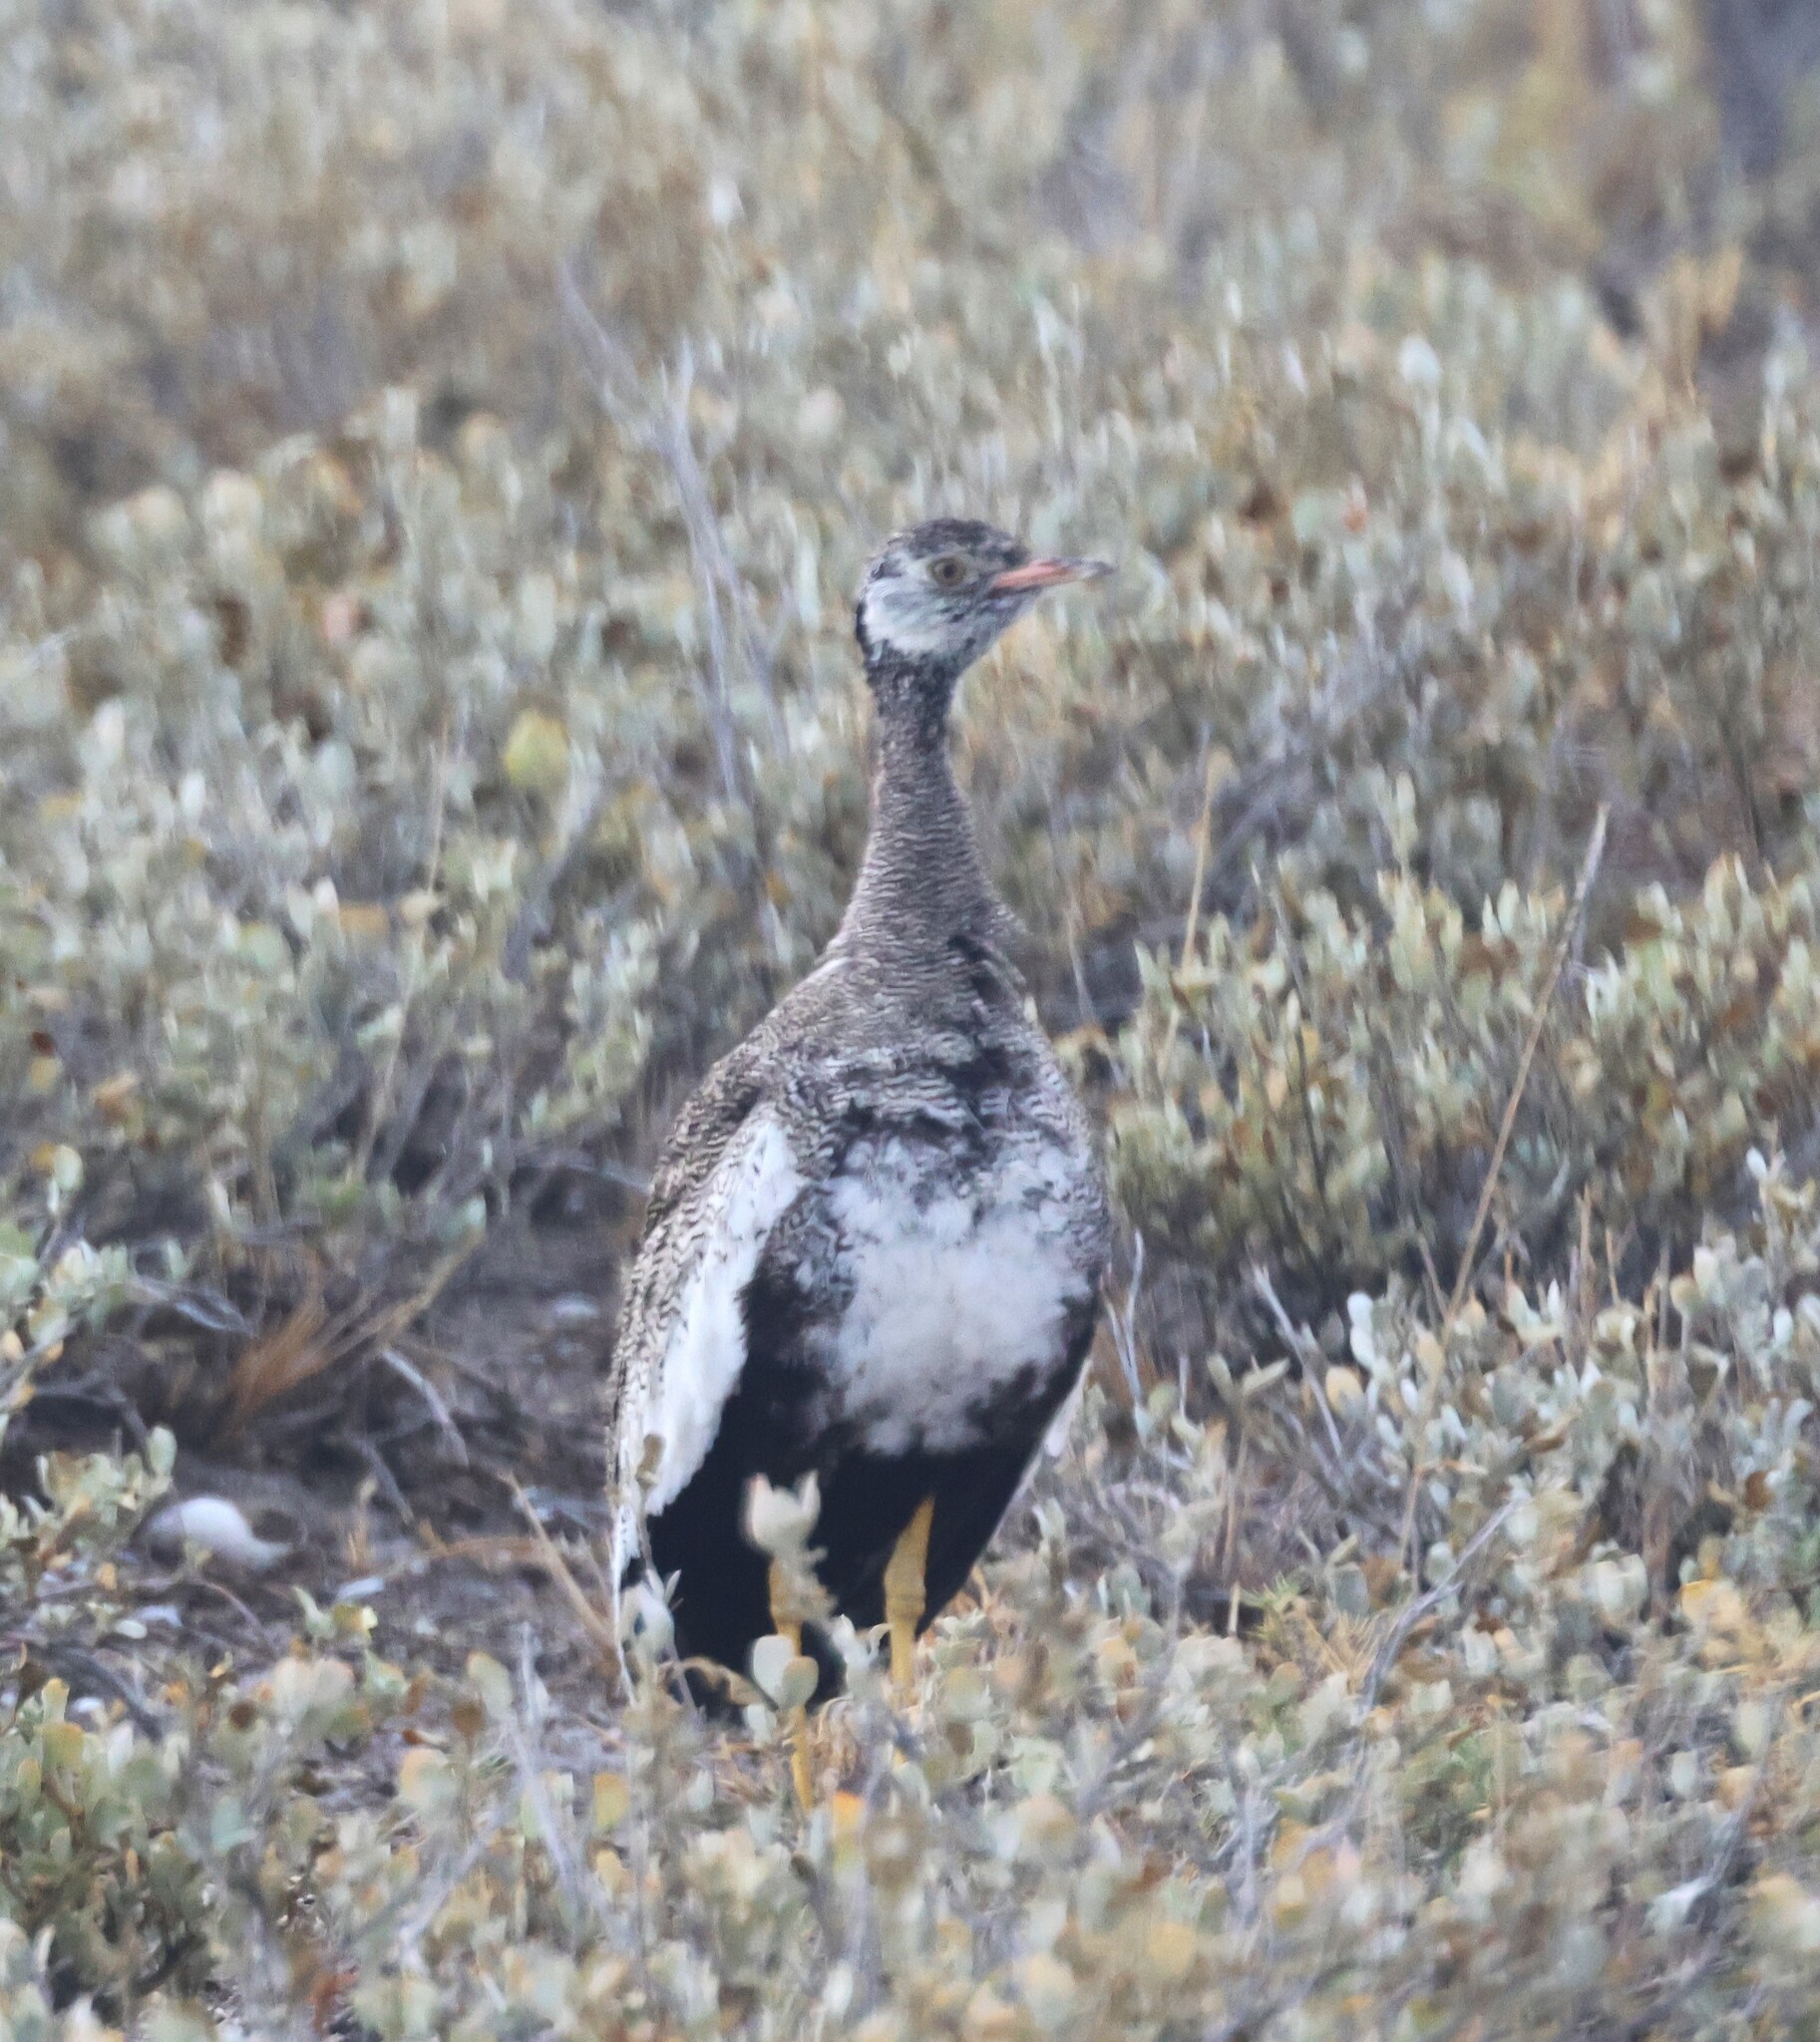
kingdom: Animalia
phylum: Chordata
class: Aves
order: Otidiformes
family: Otididae
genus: Afrotis
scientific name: Afrotis afraoides
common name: Northern black korhaan
